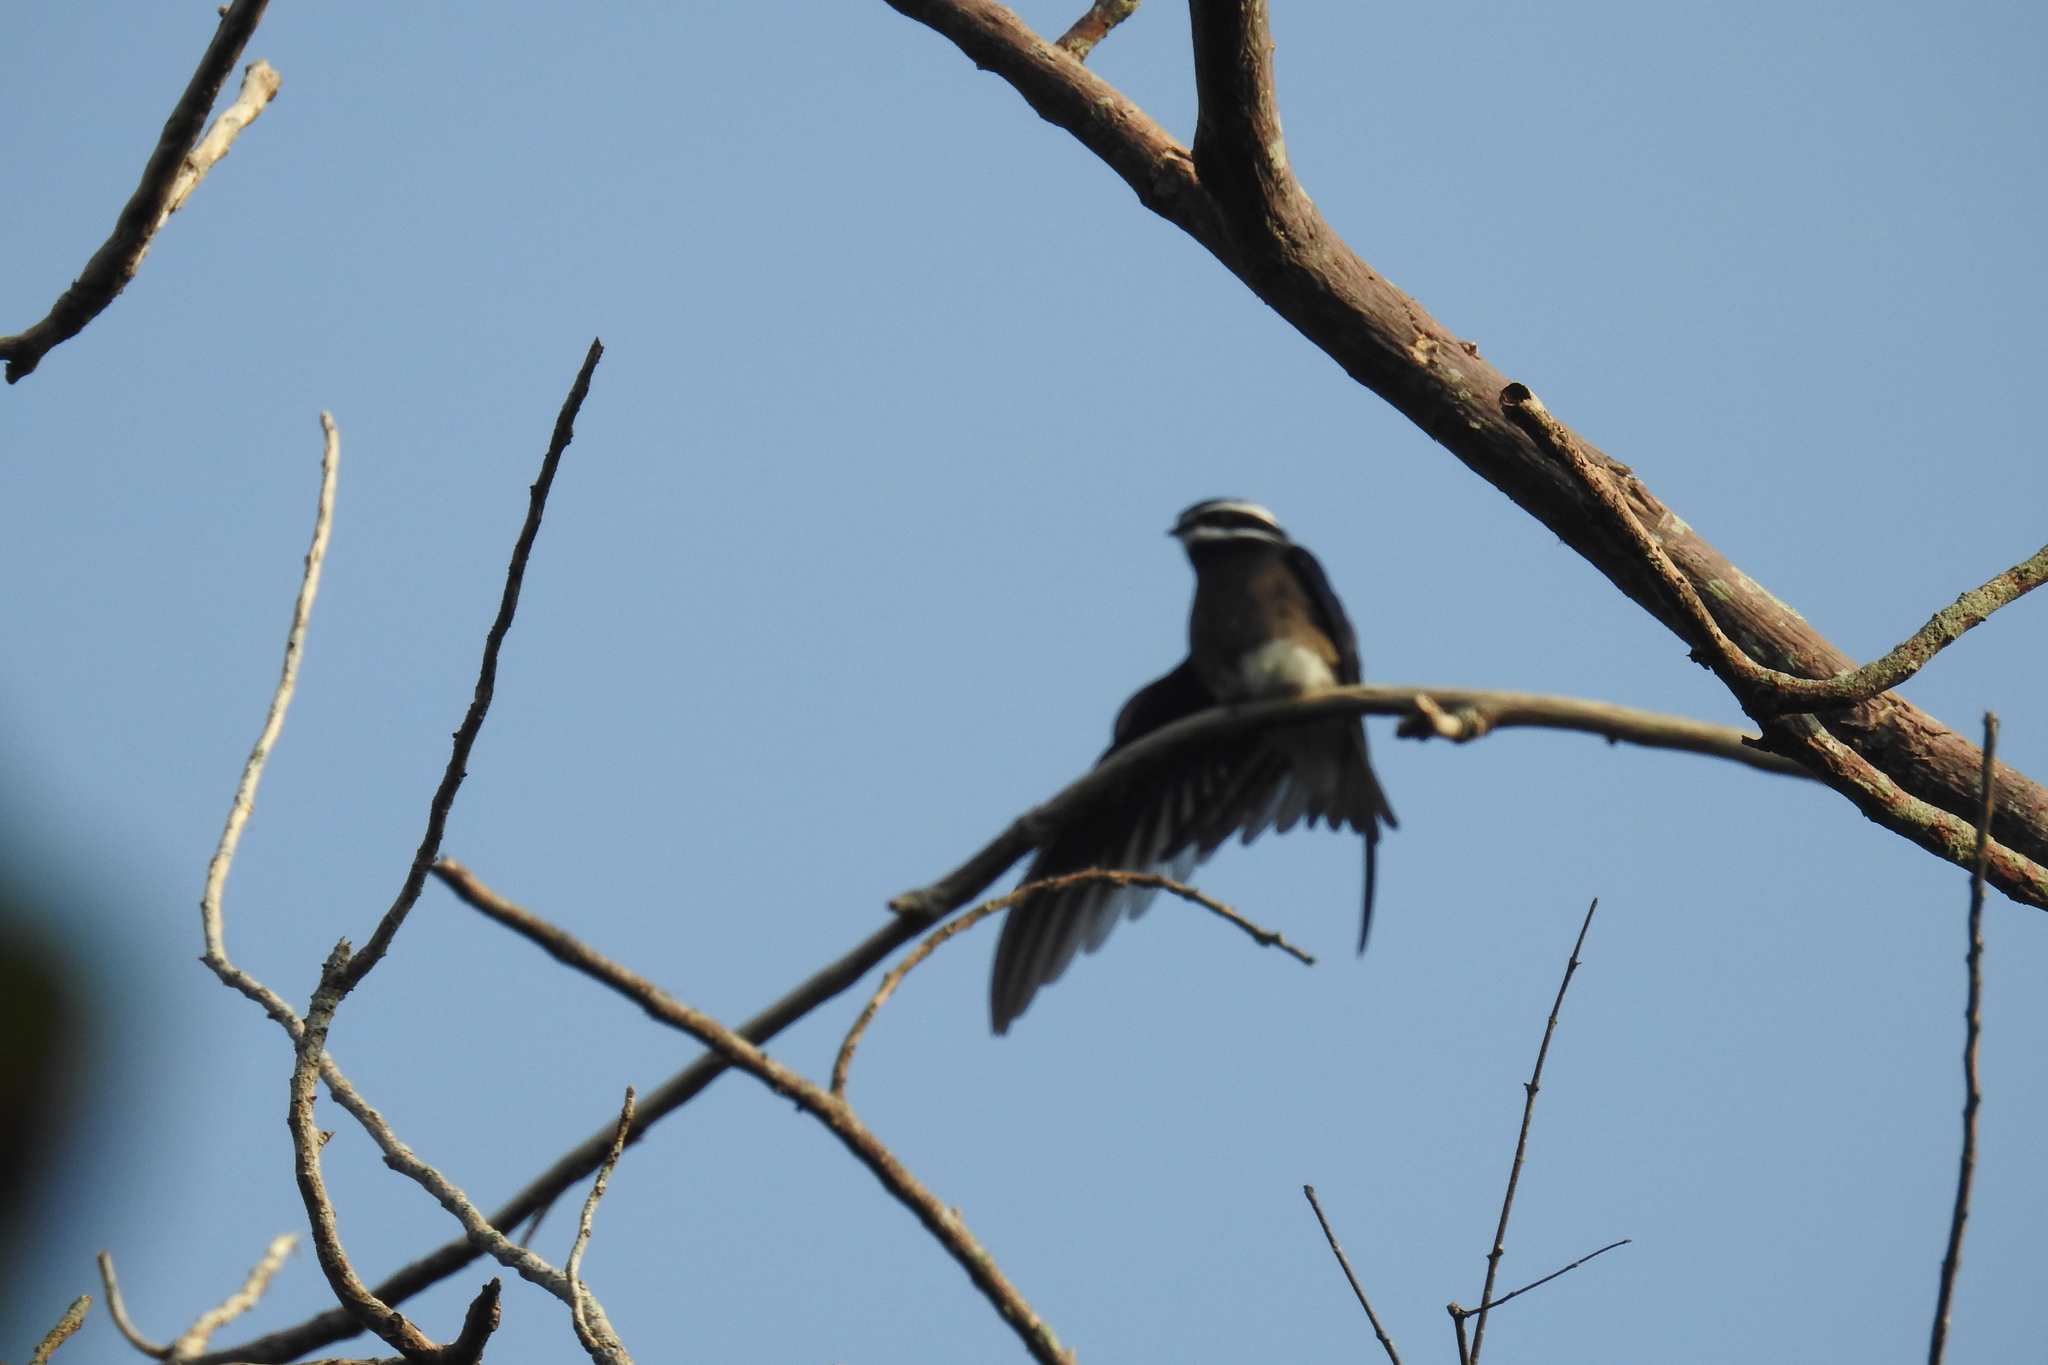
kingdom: Animalia
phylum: Chordata
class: Aves
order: Apodiformes
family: Hemiprocnidae
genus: Hemiprocne
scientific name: Hemiprocne comata
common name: Whiskered treeswift
